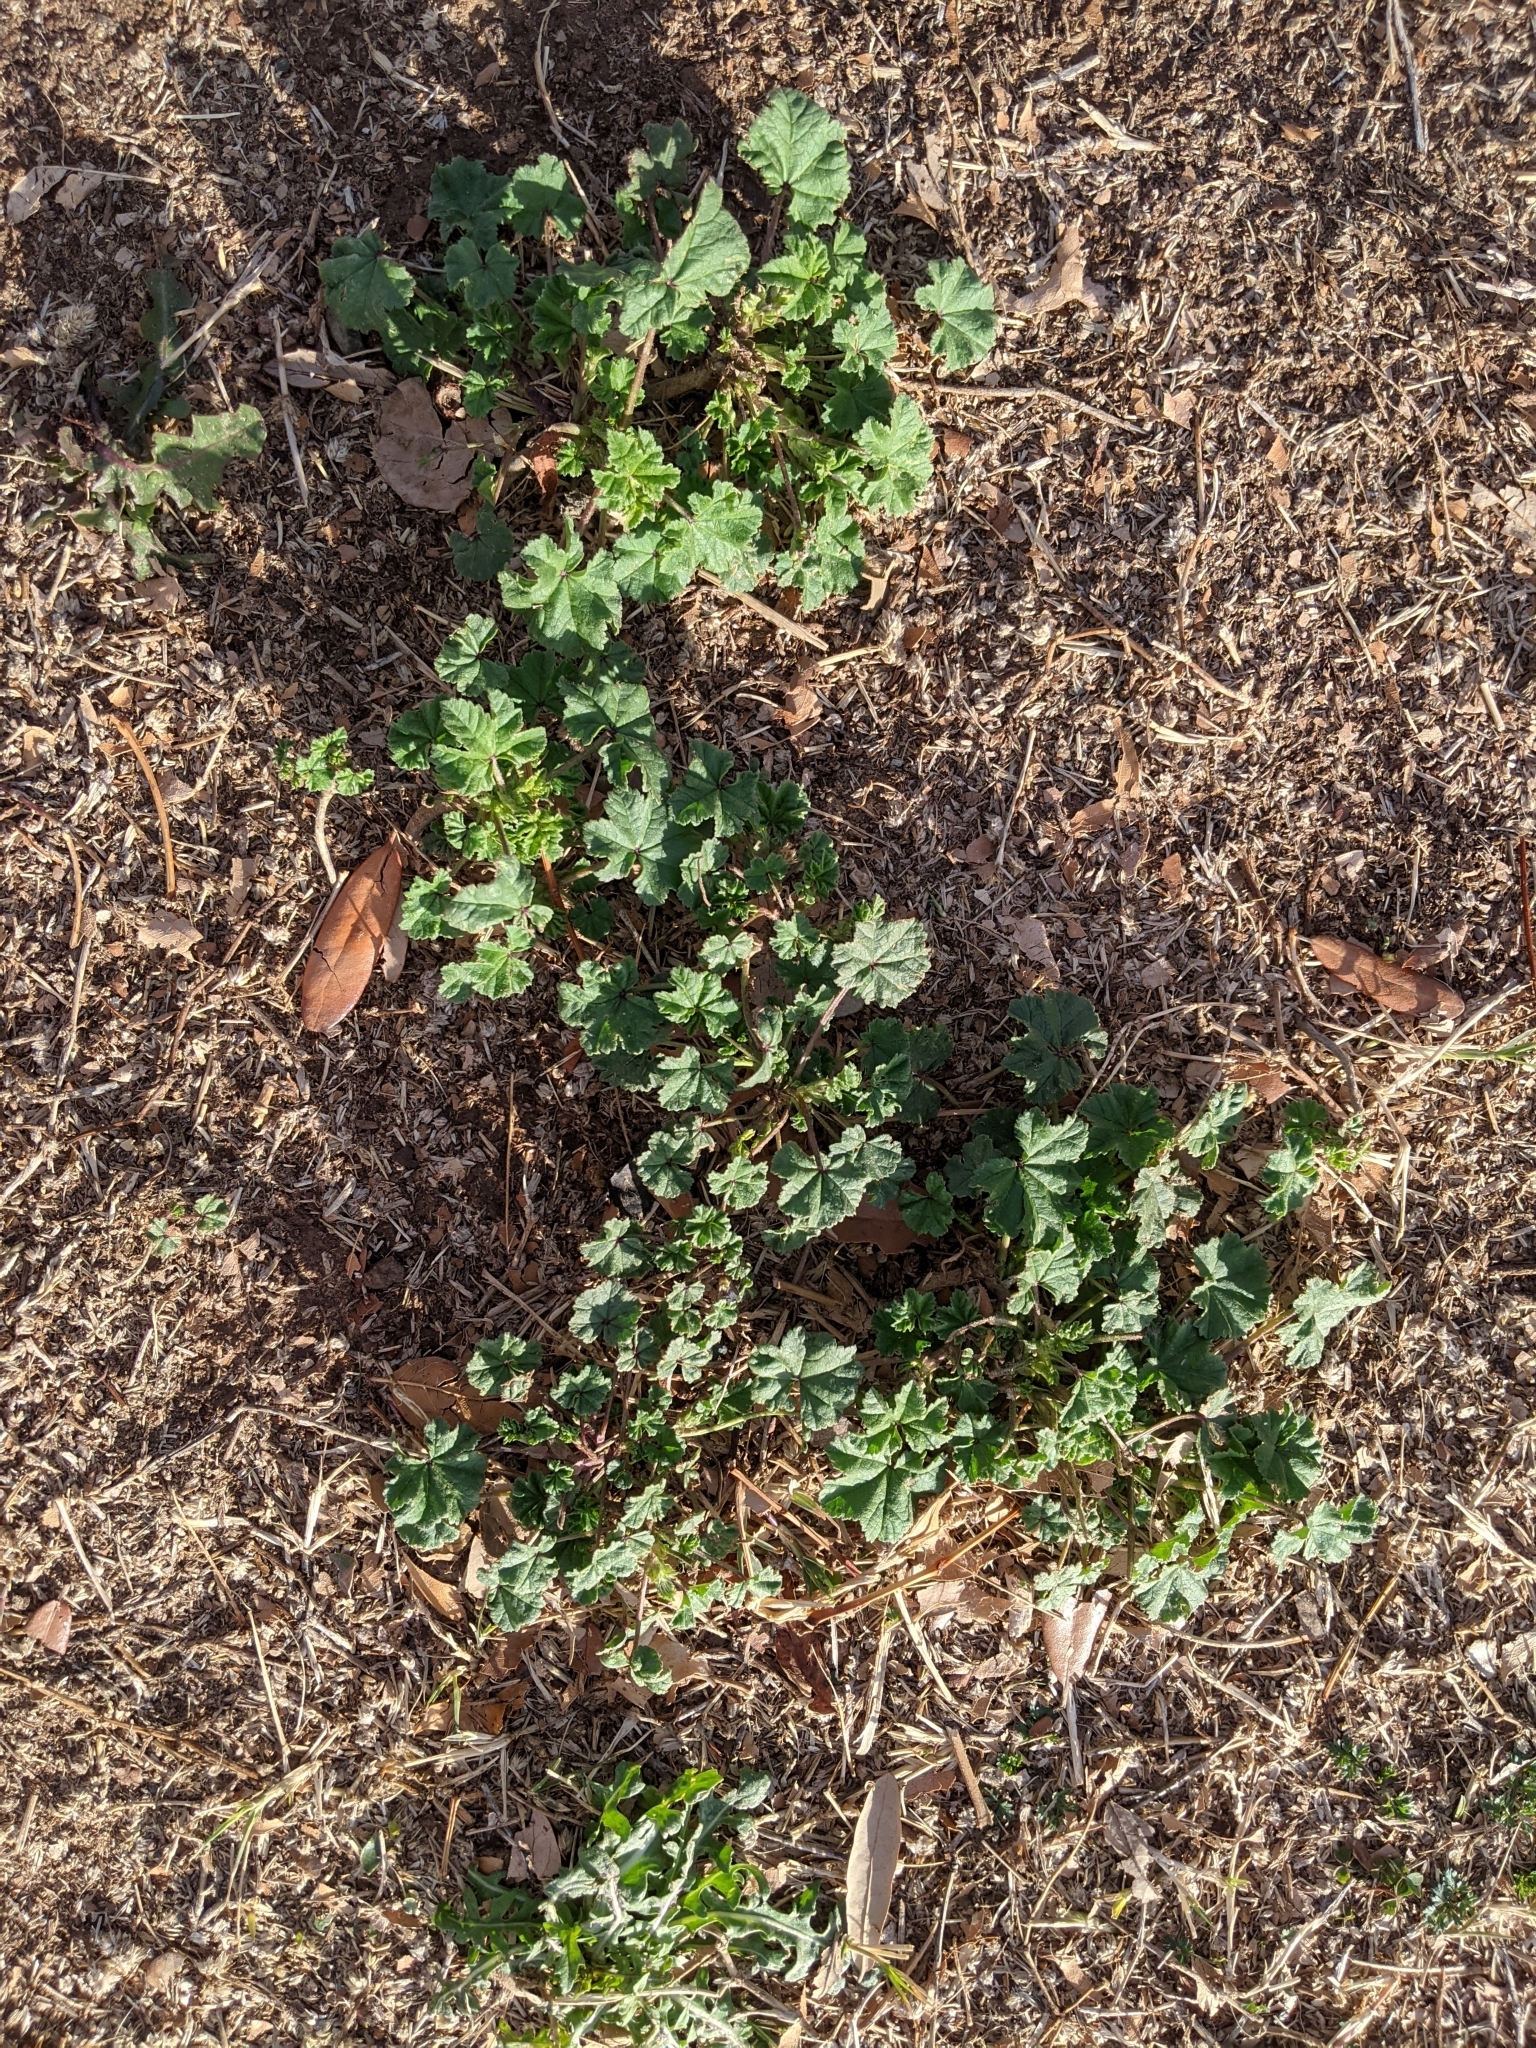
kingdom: Plantae
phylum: Tracheophyta
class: Magnoliopsida
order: Malvales
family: Malvaceae
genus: Malva
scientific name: Malva parviflora
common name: Least mallow
